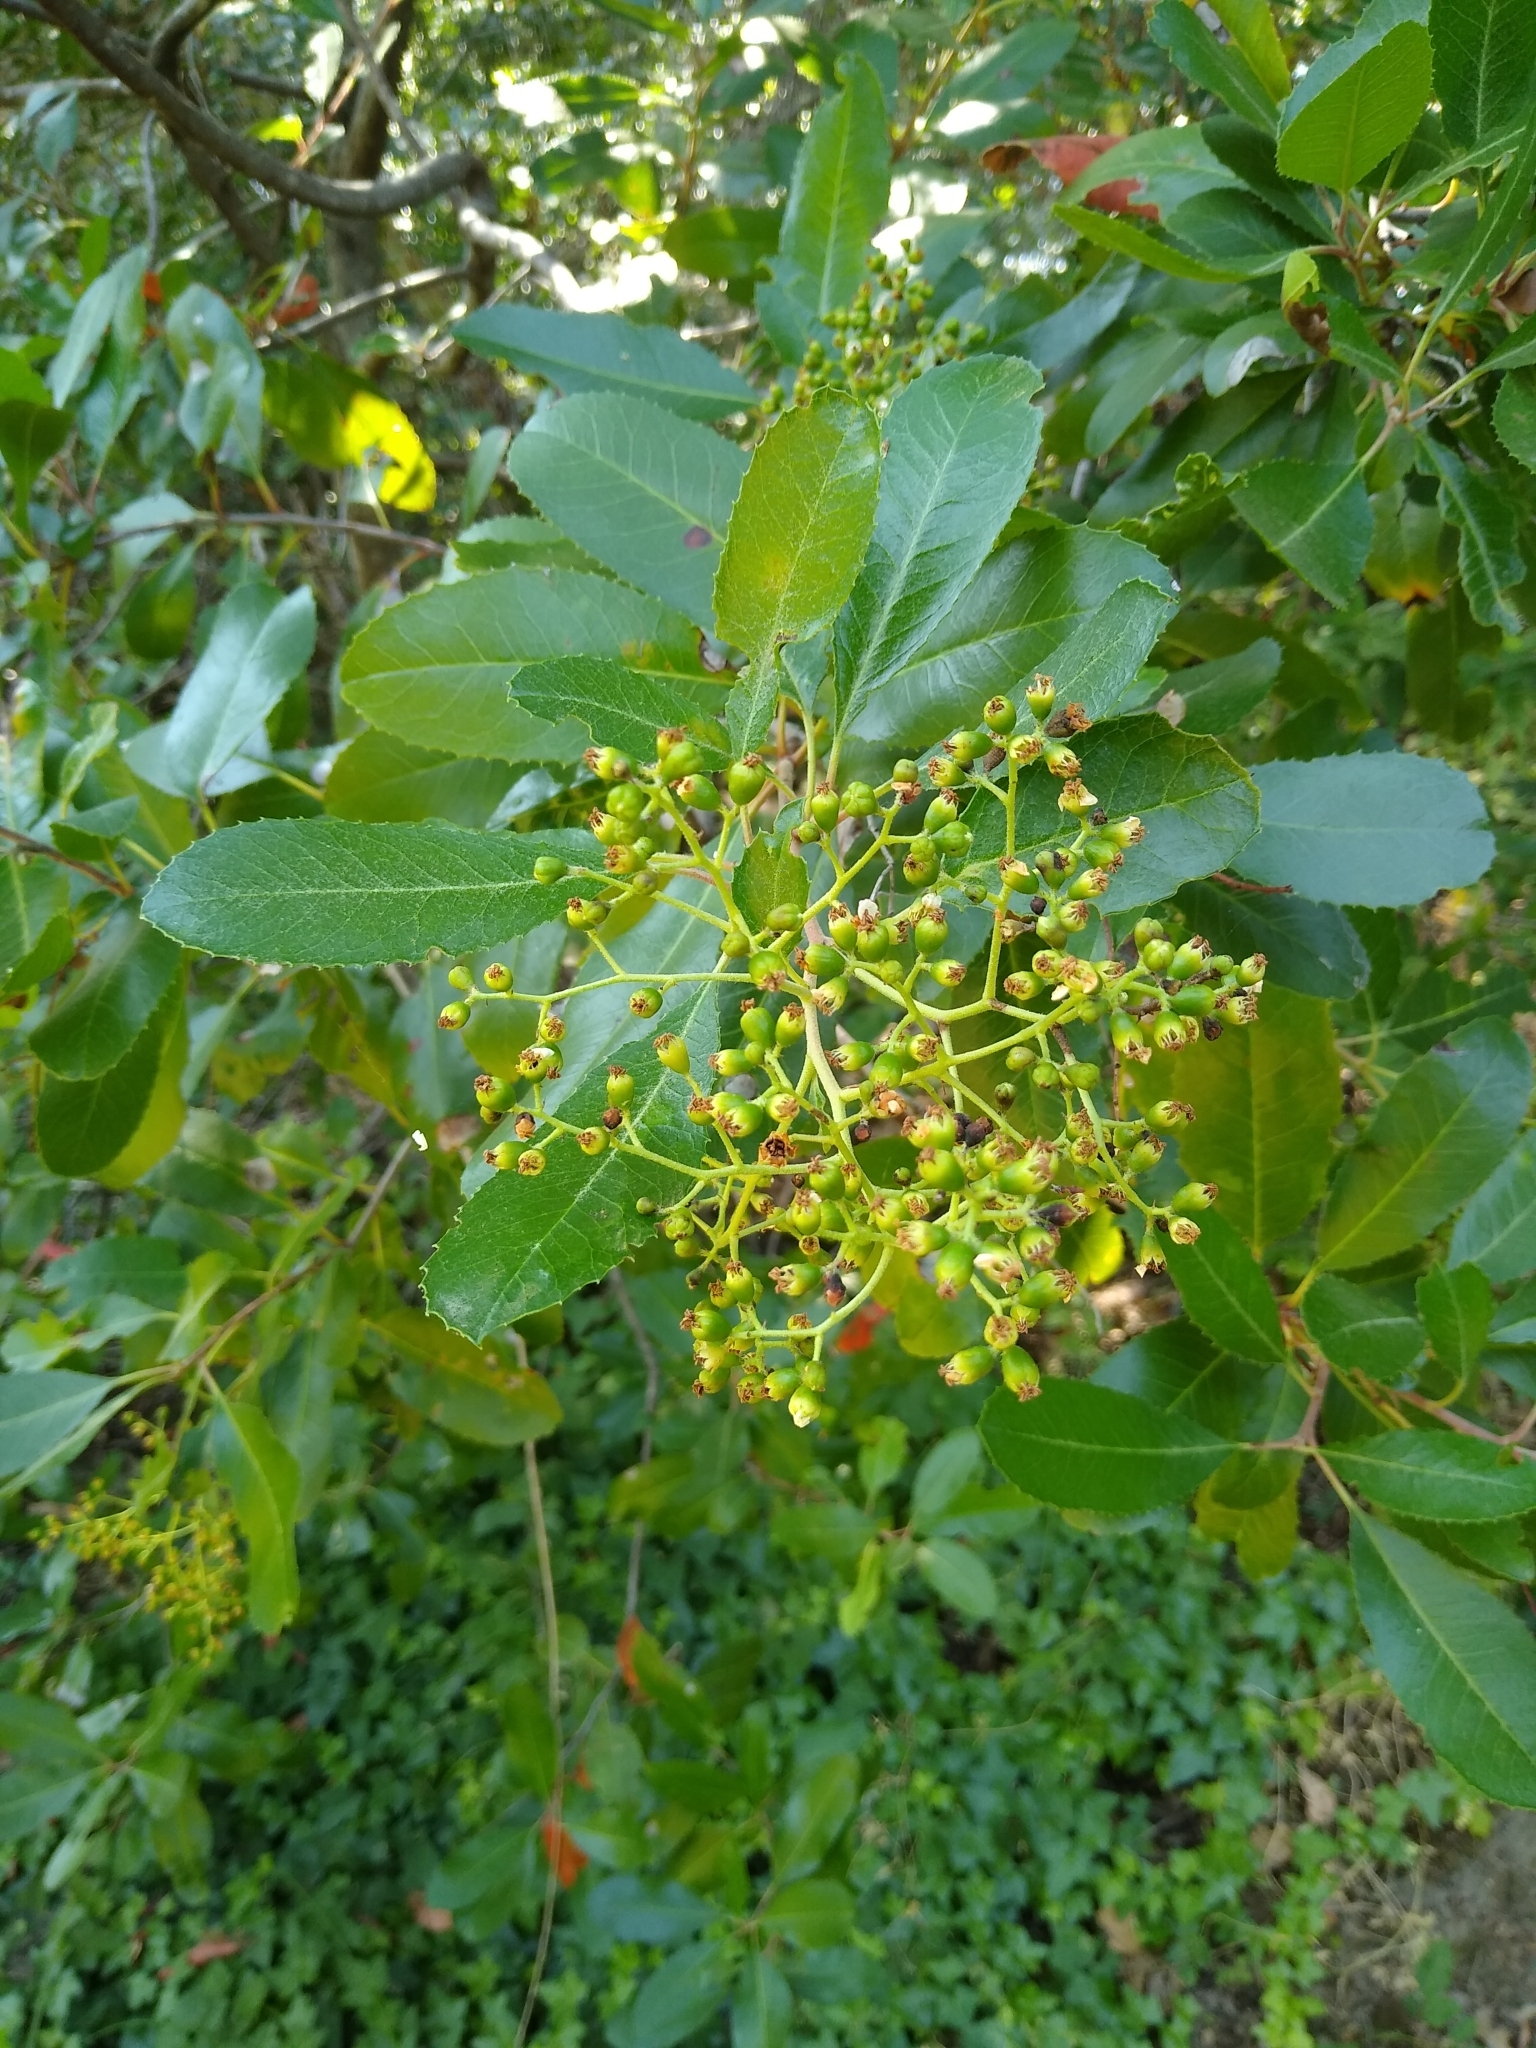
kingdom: Plantae
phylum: Tracheophyta
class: Magnoliopsida
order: Rosales
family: Rosaceae
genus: Heteromeles
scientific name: Heteromeles arbutifolia
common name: California-holly
